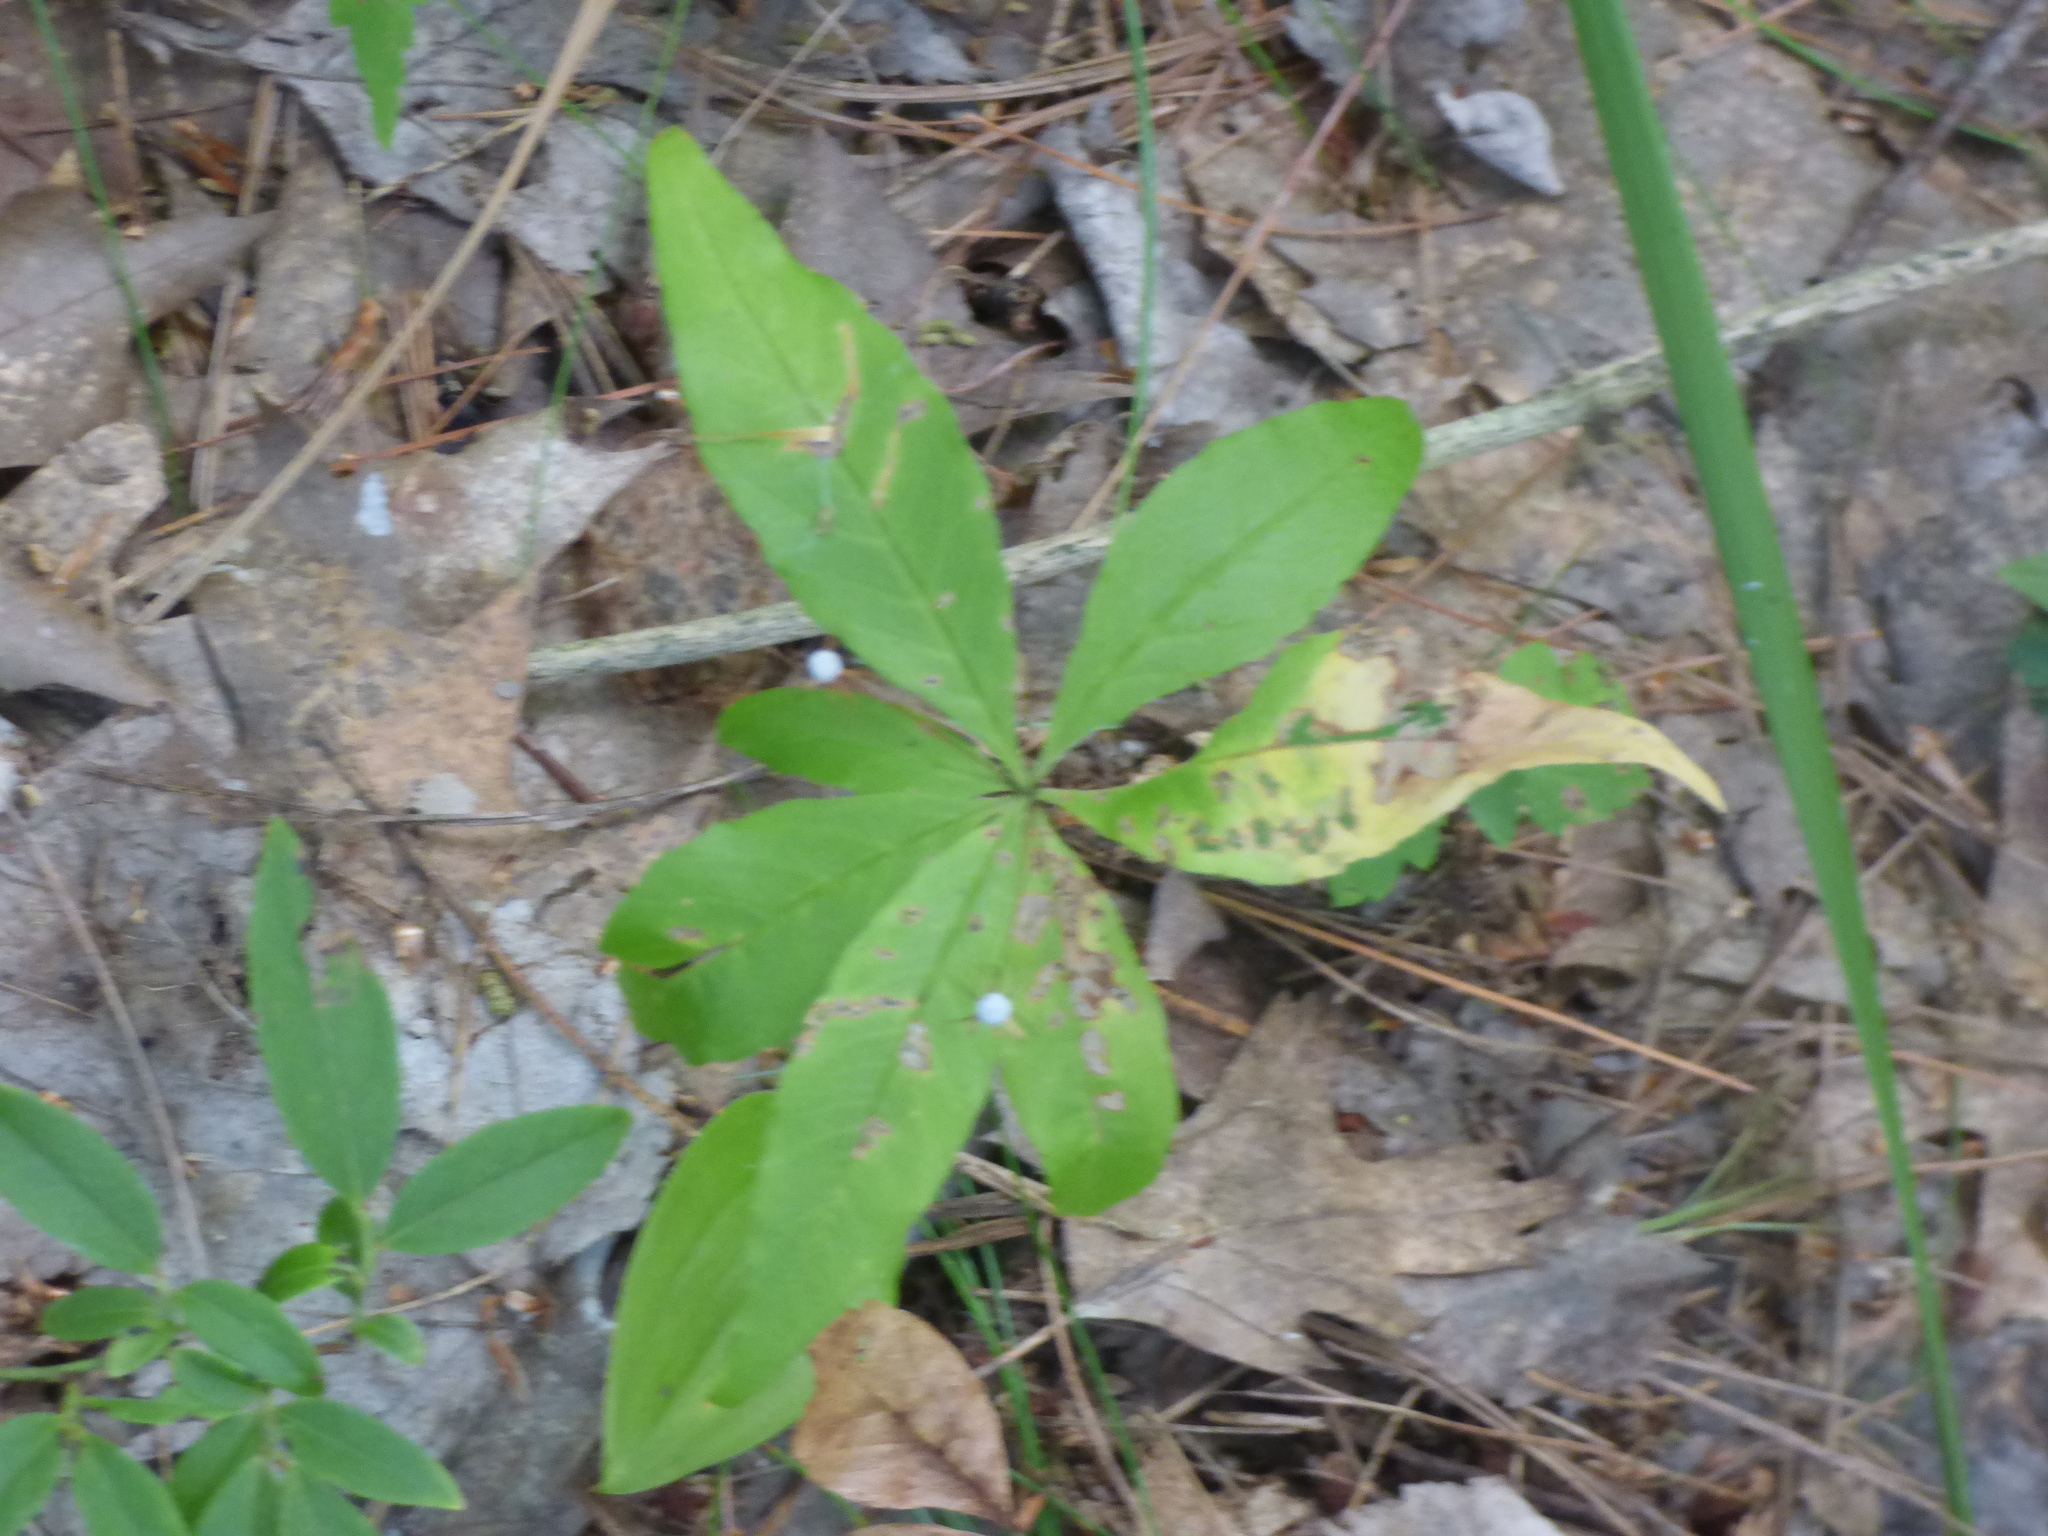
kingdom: Plantae
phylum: Tracheophyta
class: Magnoliopsida
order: Ericales
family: Primulaceae
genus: Lysimachia
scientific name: Lysimachia borealis
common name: American starflower
